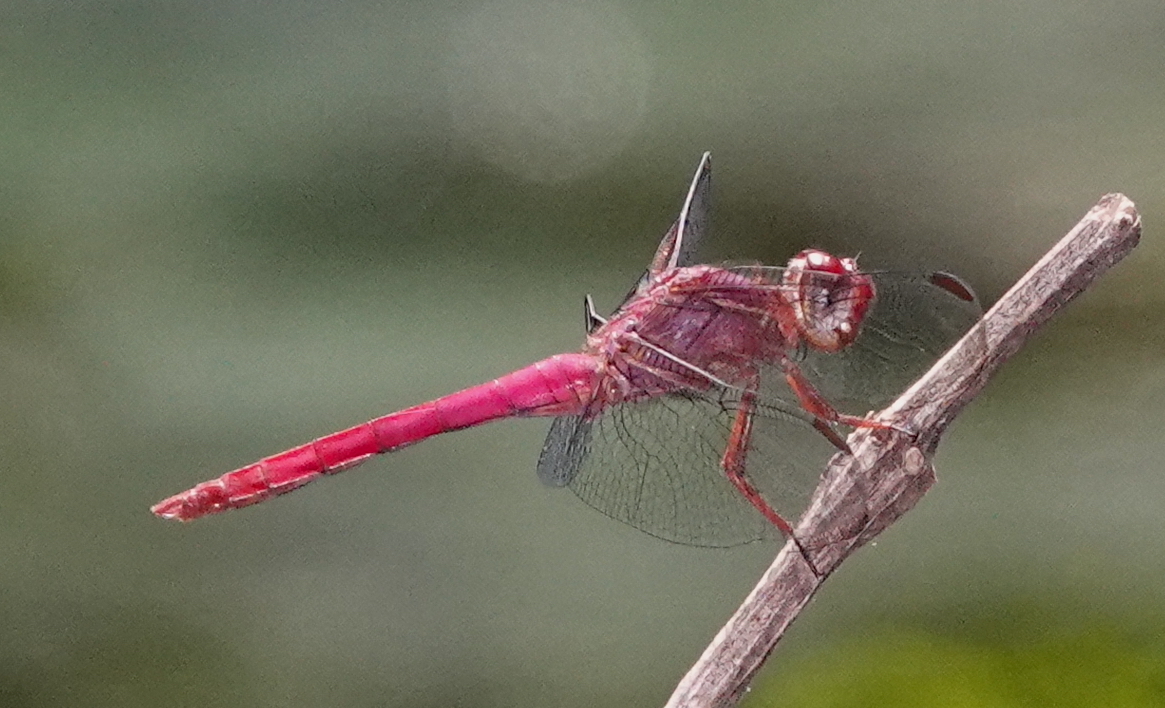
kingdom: Animalia
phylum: Arthropoda
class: Insecta
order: Odonata
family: Libellulidae
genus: Orthemis
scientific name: Orthemis discolor
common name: Carmine skimmer
